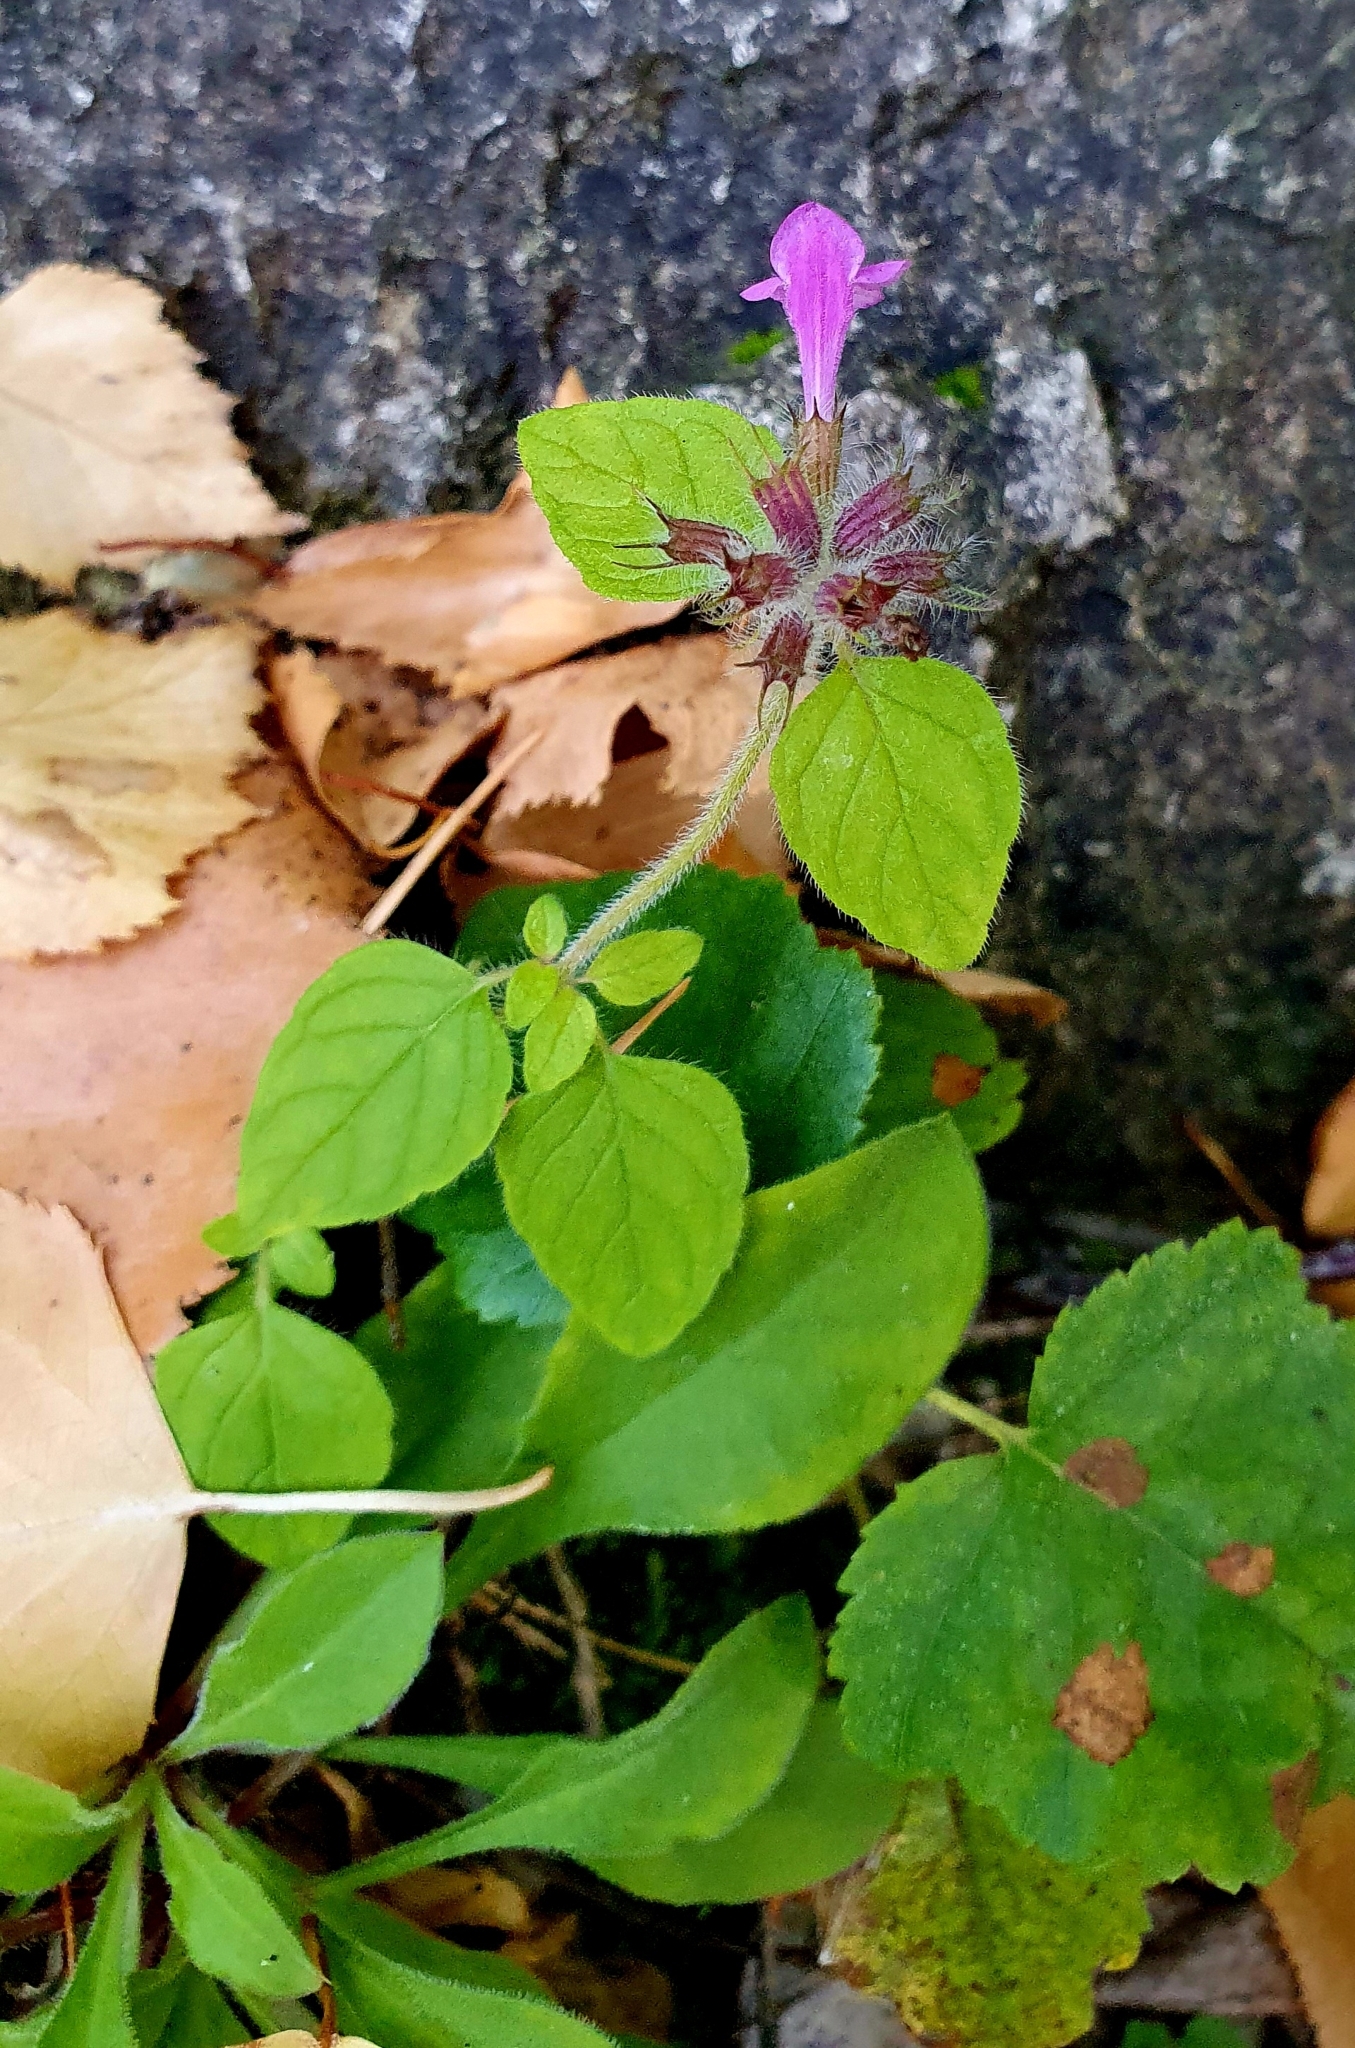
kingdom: Plantae
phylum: Tracheophyta
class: Magnoliopsida
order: Lamiales
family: Lamiaceae
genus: Clinopodium
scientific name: Clinopodium vulgare
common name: Wild basil
